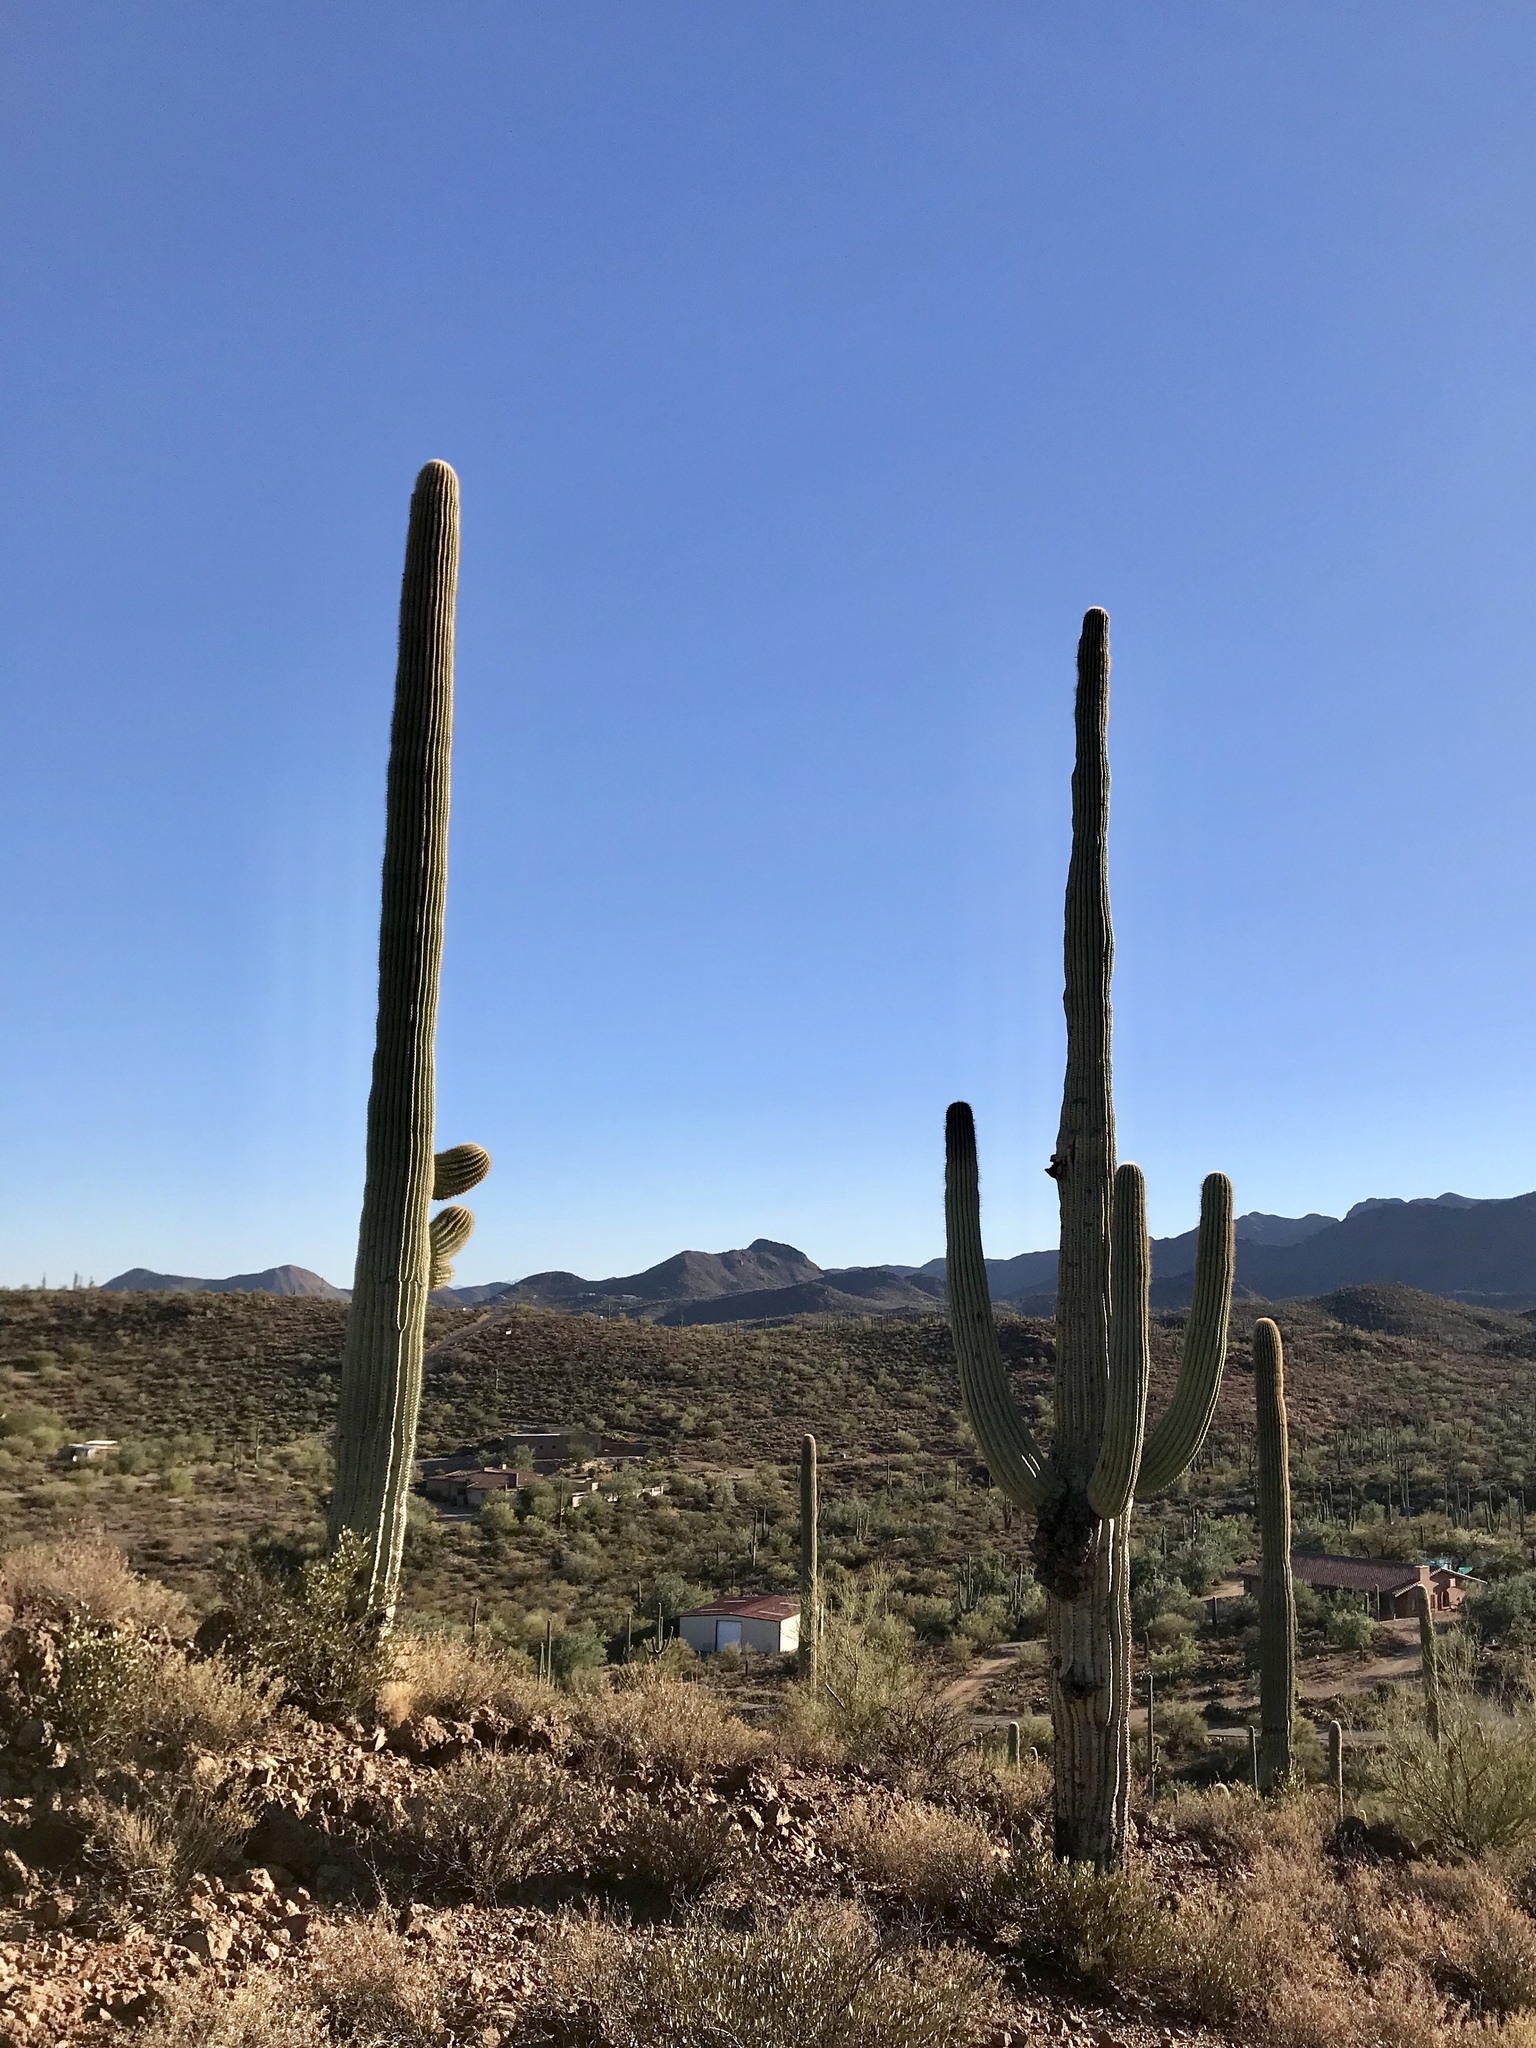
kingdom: Plantae
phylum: Tracheophyta
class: Magnoliopsida
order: Caryophyllales
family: Cactaceae
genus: Carnegiea
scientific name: Carnegiea gigantea
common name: Saguaro
